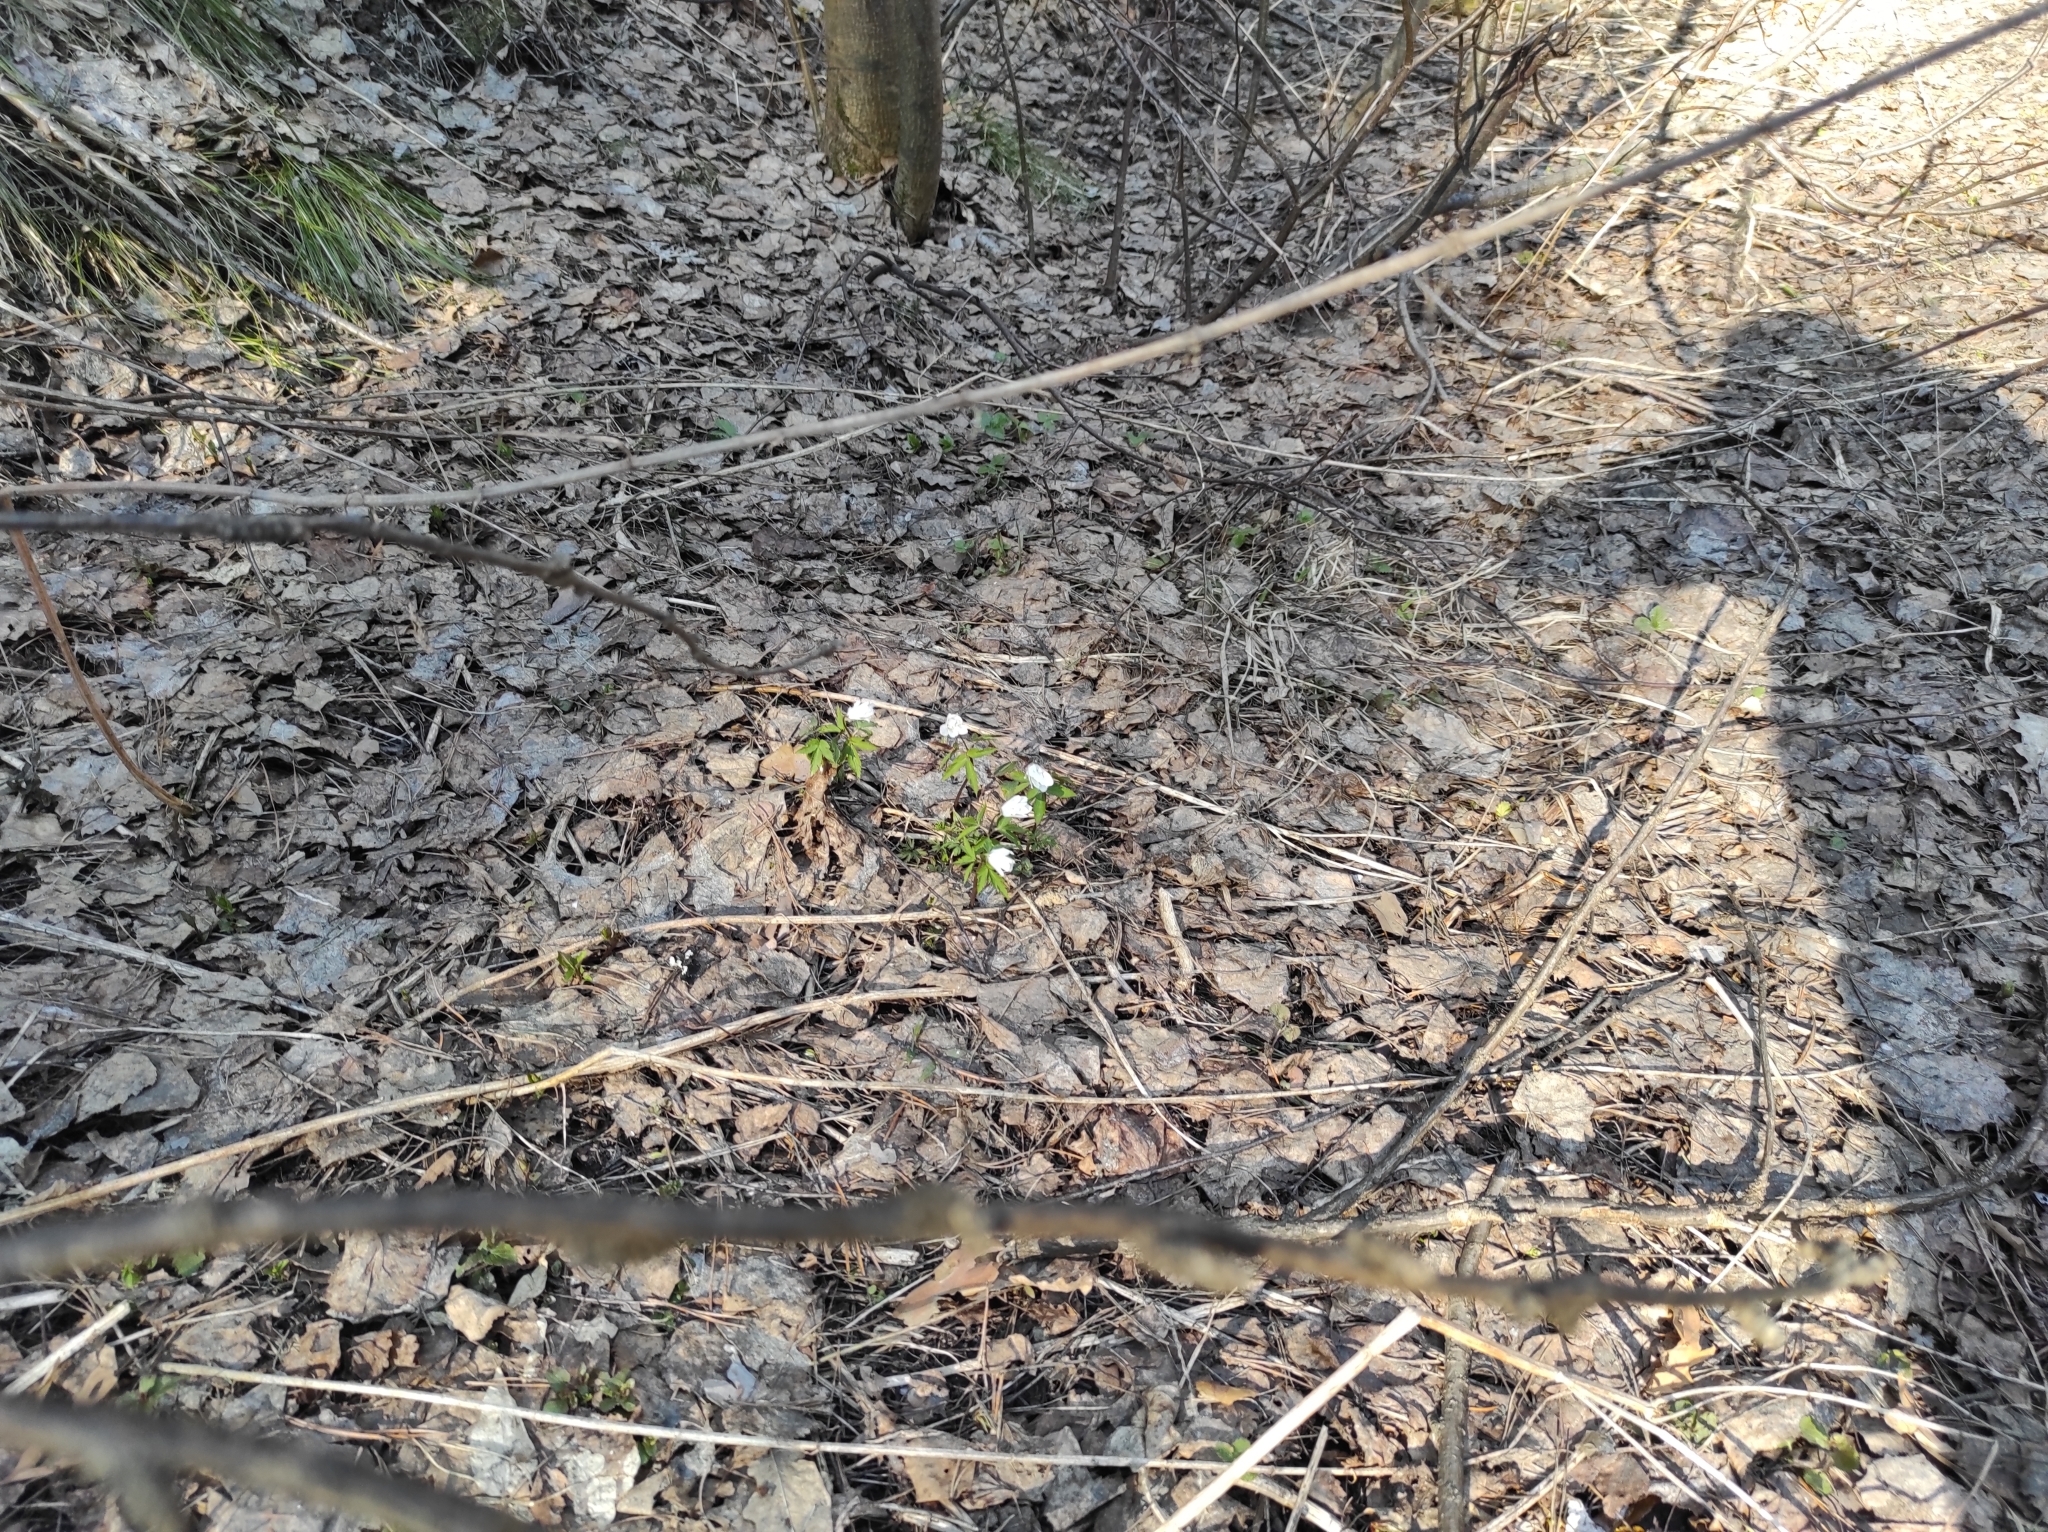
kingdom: Plantae
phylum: Tracheophyta
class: Magnoliopsida
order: Ranunculales
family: Ranunculaceae
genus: Anemone
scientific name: Anemone altaica
